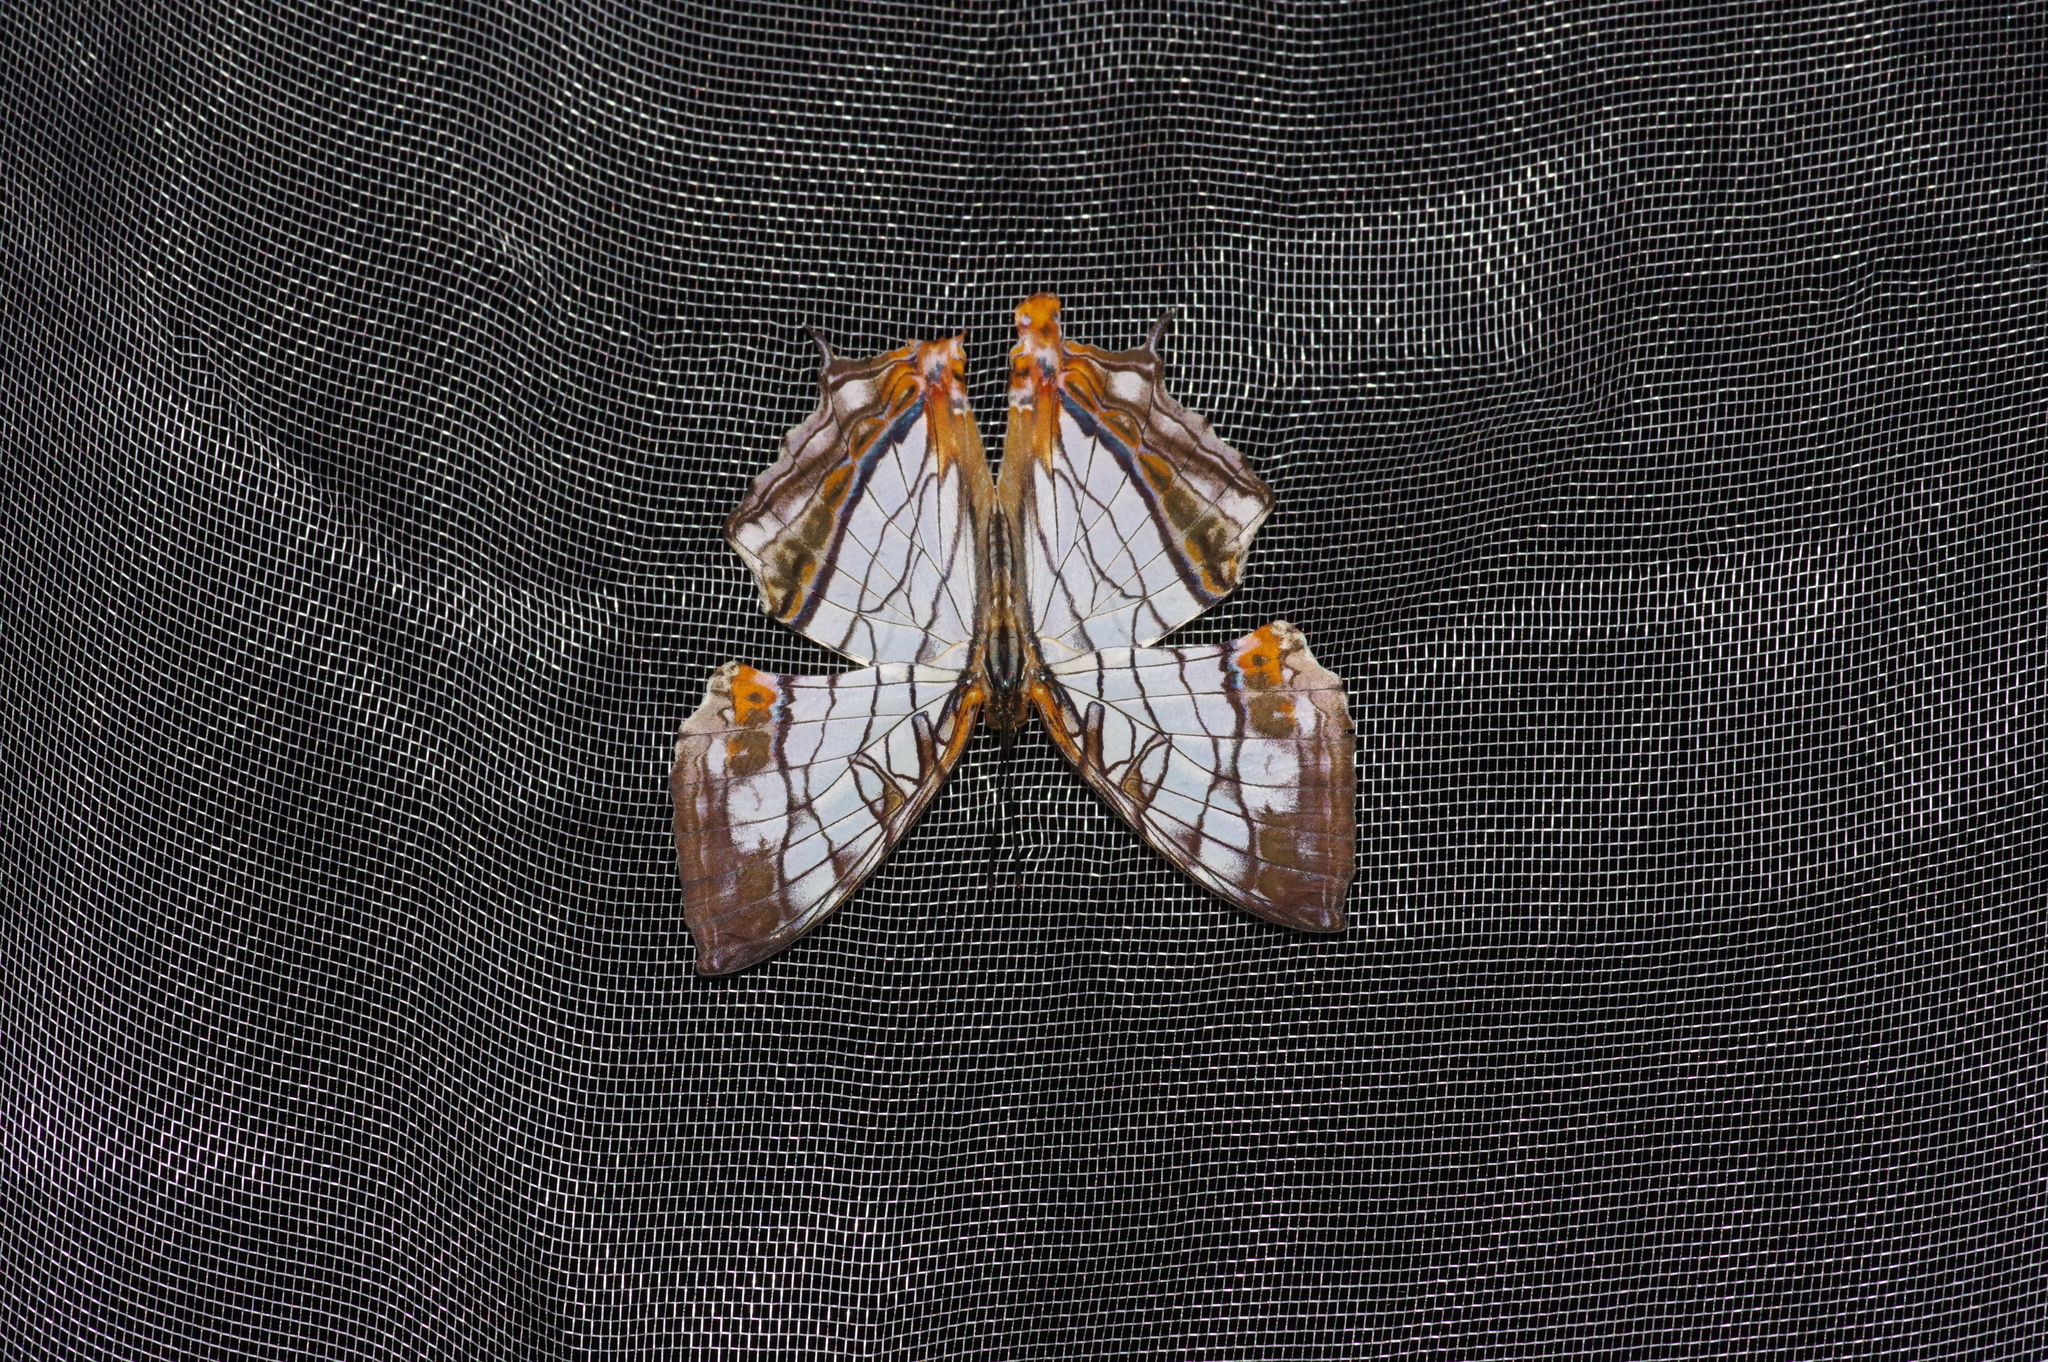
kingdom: Animalia
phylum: Arthropoda
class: Insecta
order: Lepidoptera
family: Nymphalidae
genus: Cyrestis
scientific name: Cyrestis thyodamas
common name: Common mapwing
